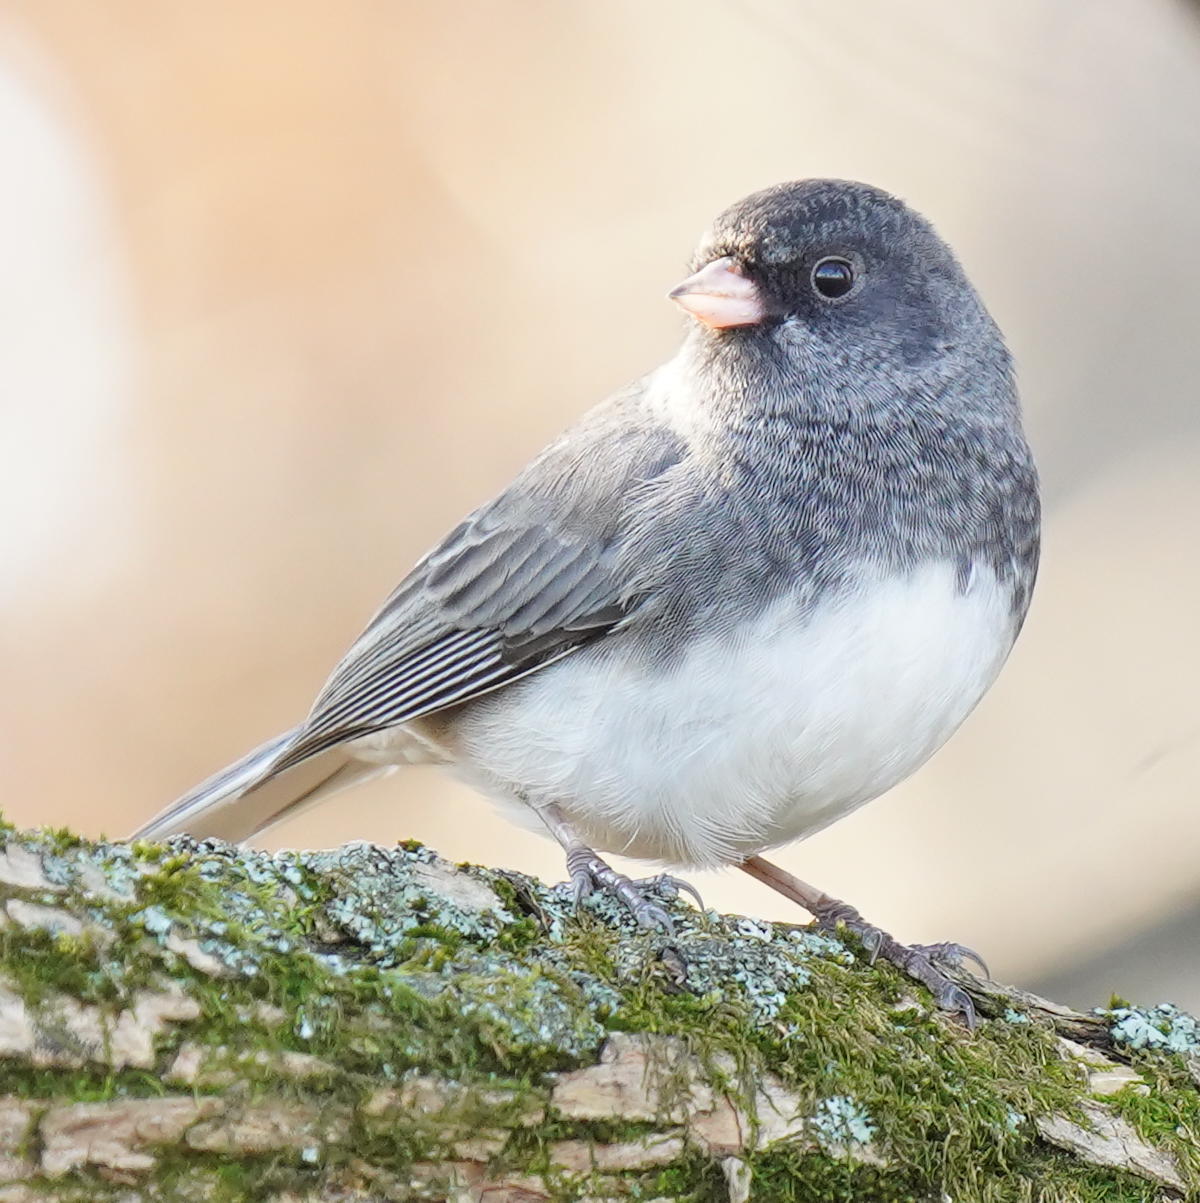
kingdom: Animalia
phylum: Chordata
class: Aves
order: Passeriformes
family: Passerellidae
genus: Junco
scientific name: Junco hyemalis
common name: Dark-eyed junco
